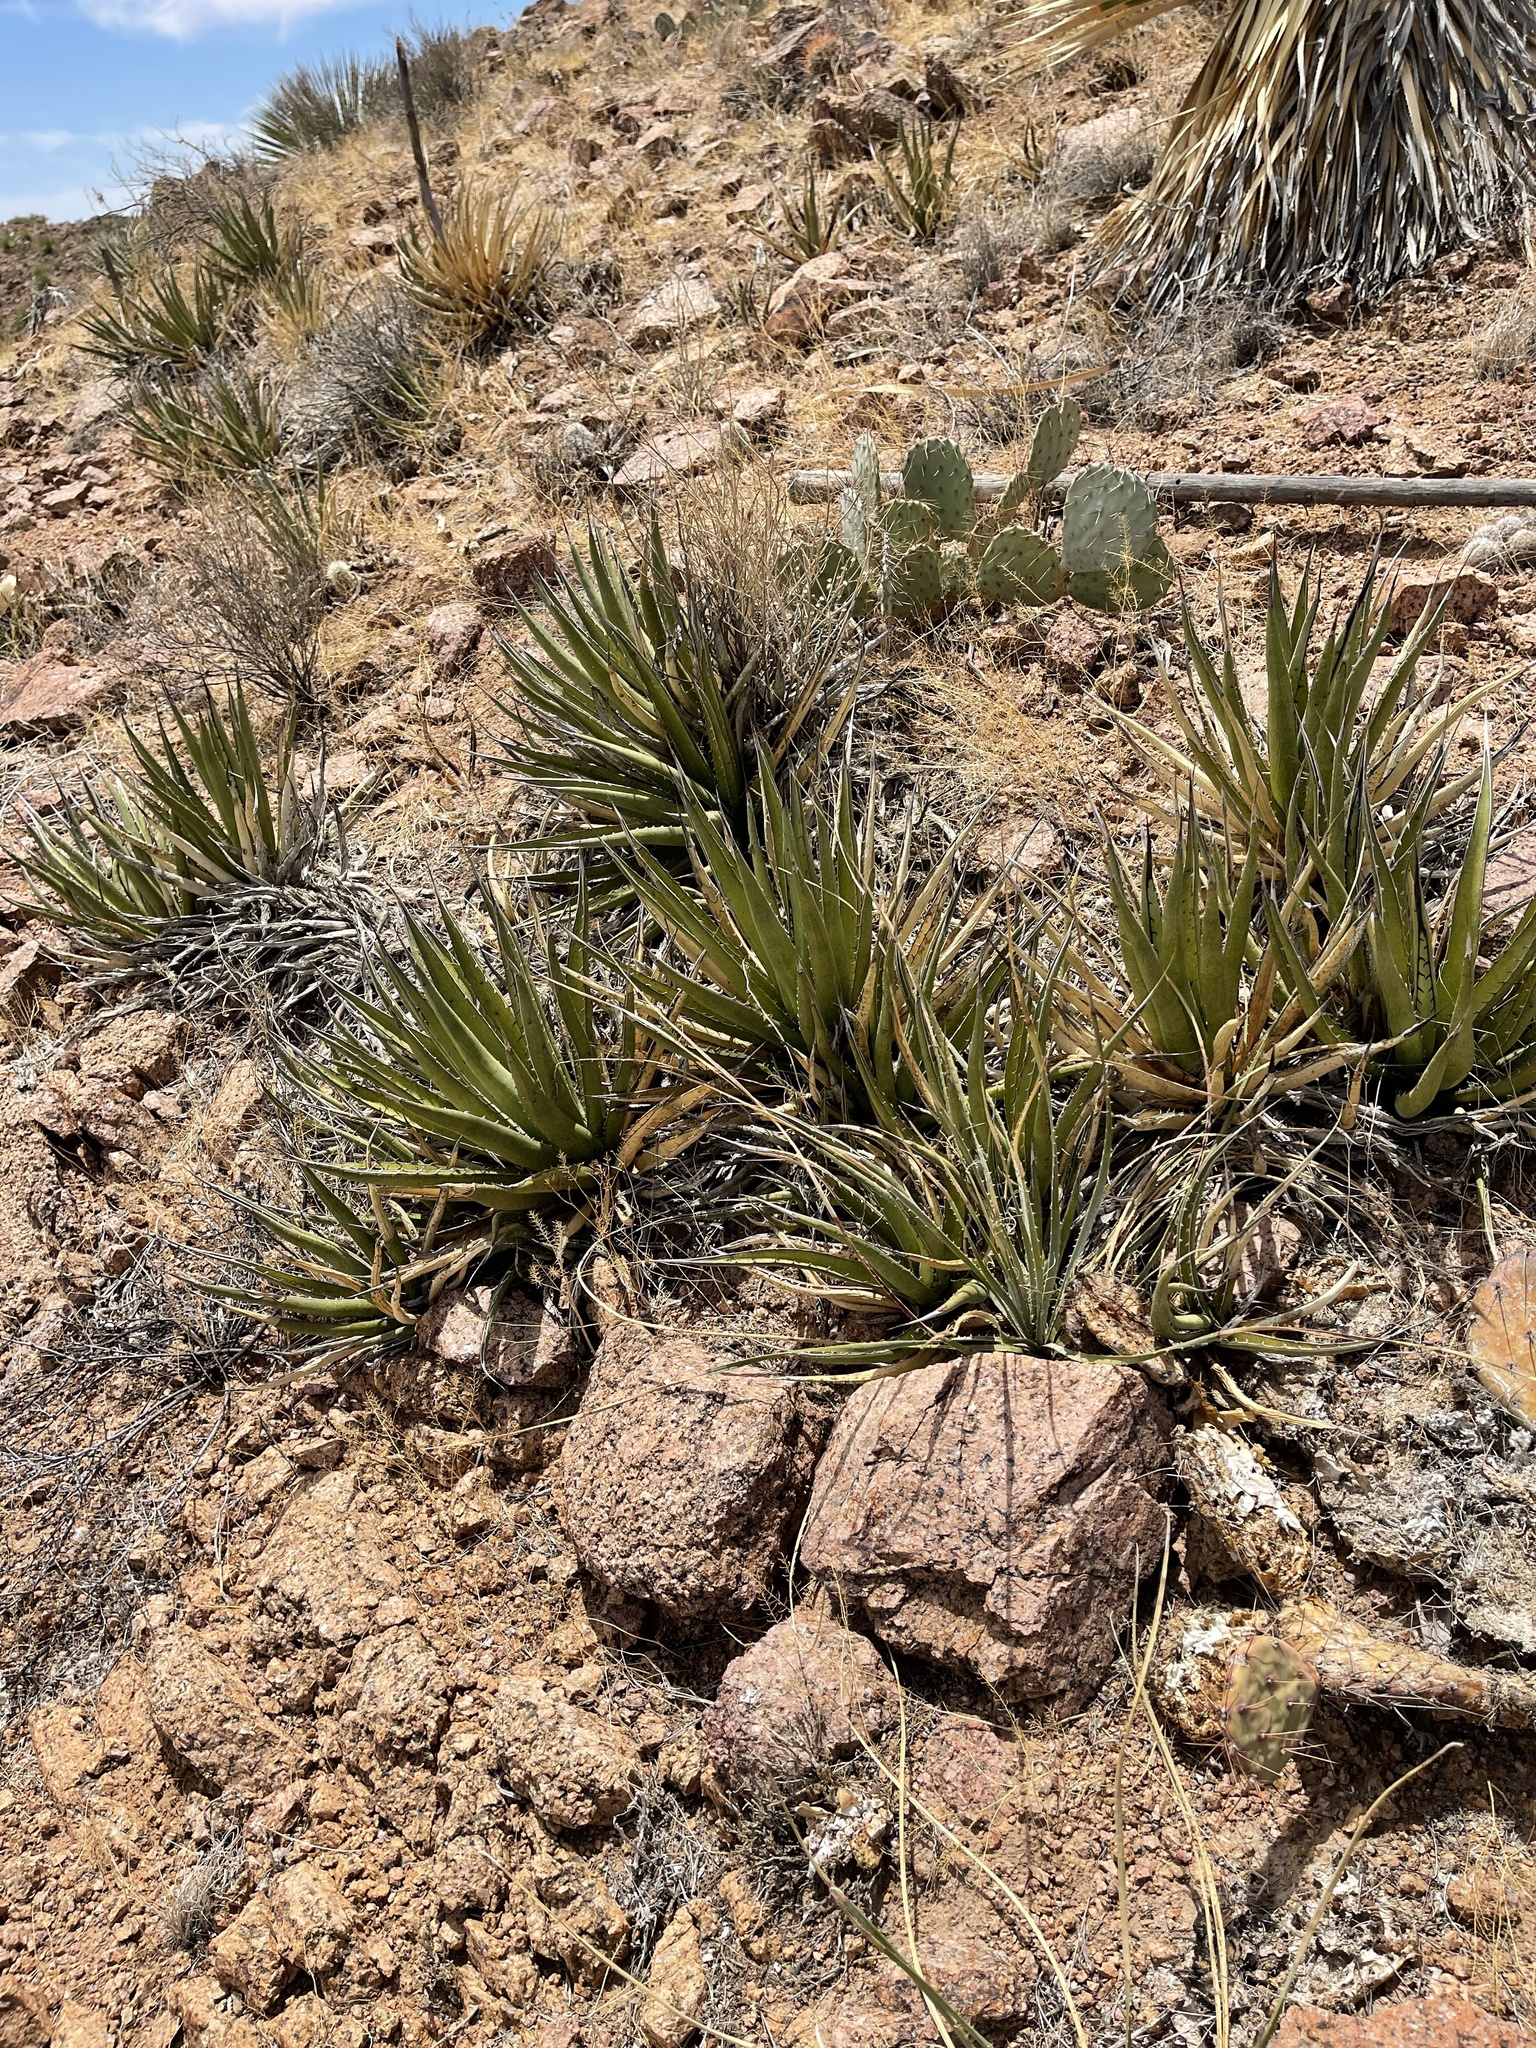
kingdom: Plantae
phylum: Tracheophyta
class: Liliopsida
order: Asparagales
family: Asparagaceae
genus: Agave
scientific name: Agave lechuguilla
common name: Lecheguilla agave
